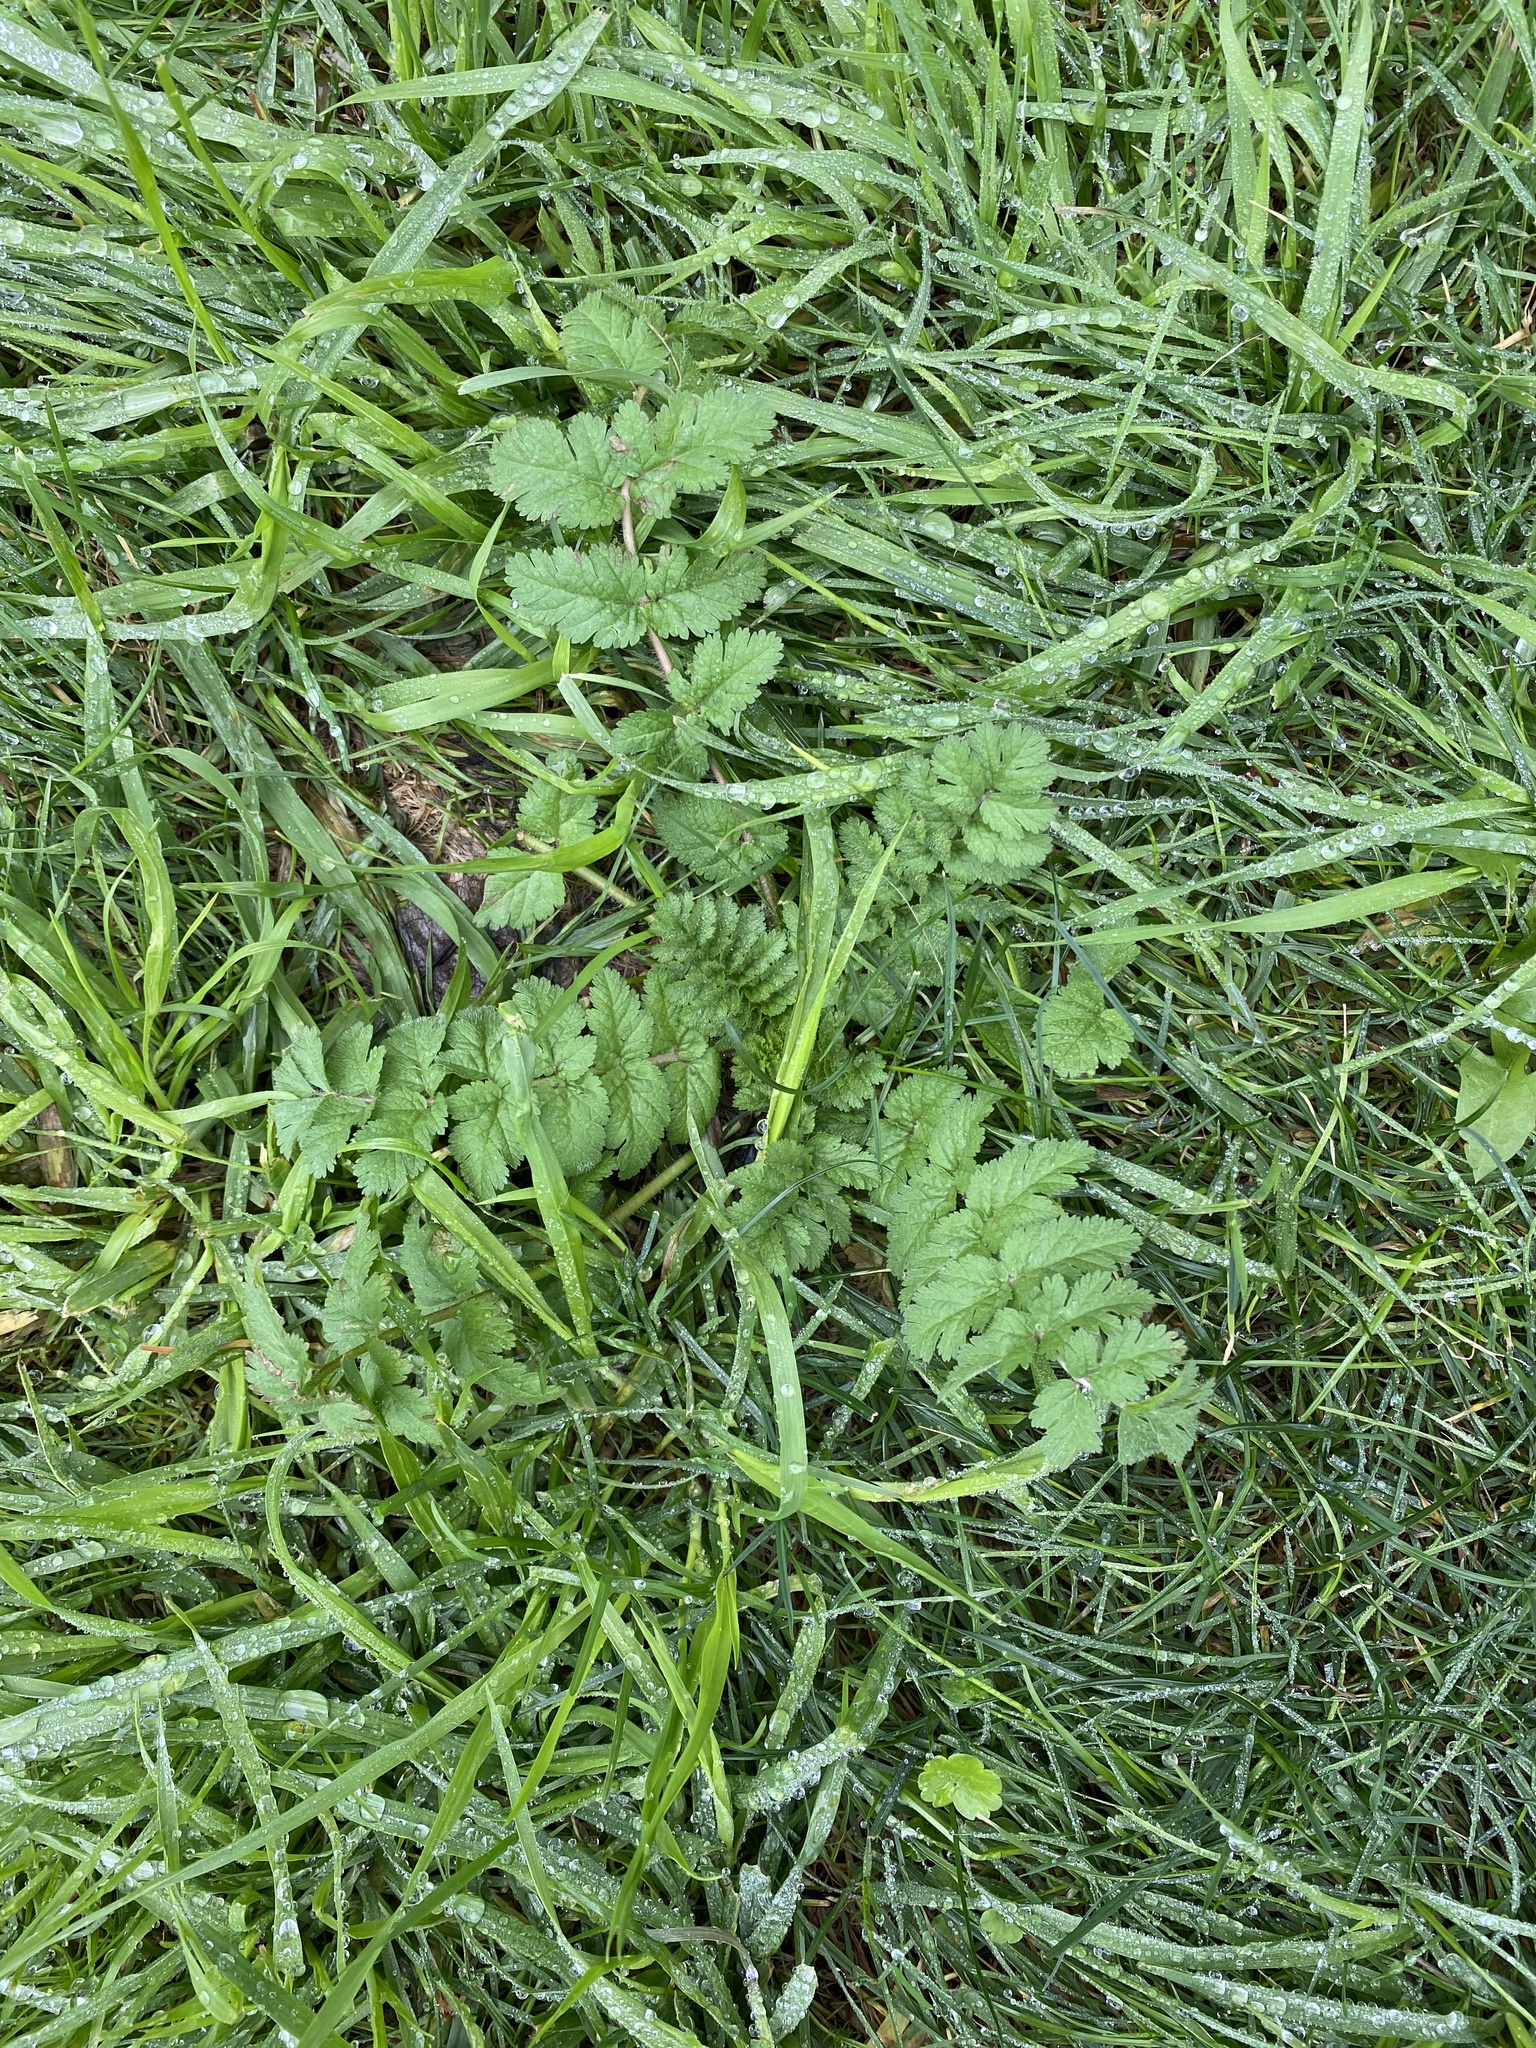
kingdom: Plantae
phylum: Tracheophyta
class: Magnoliopsida
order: Geraniales
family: Geraniaceae
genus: Erodium
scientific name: Erodium moschatum
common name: Musk stork's-bill
